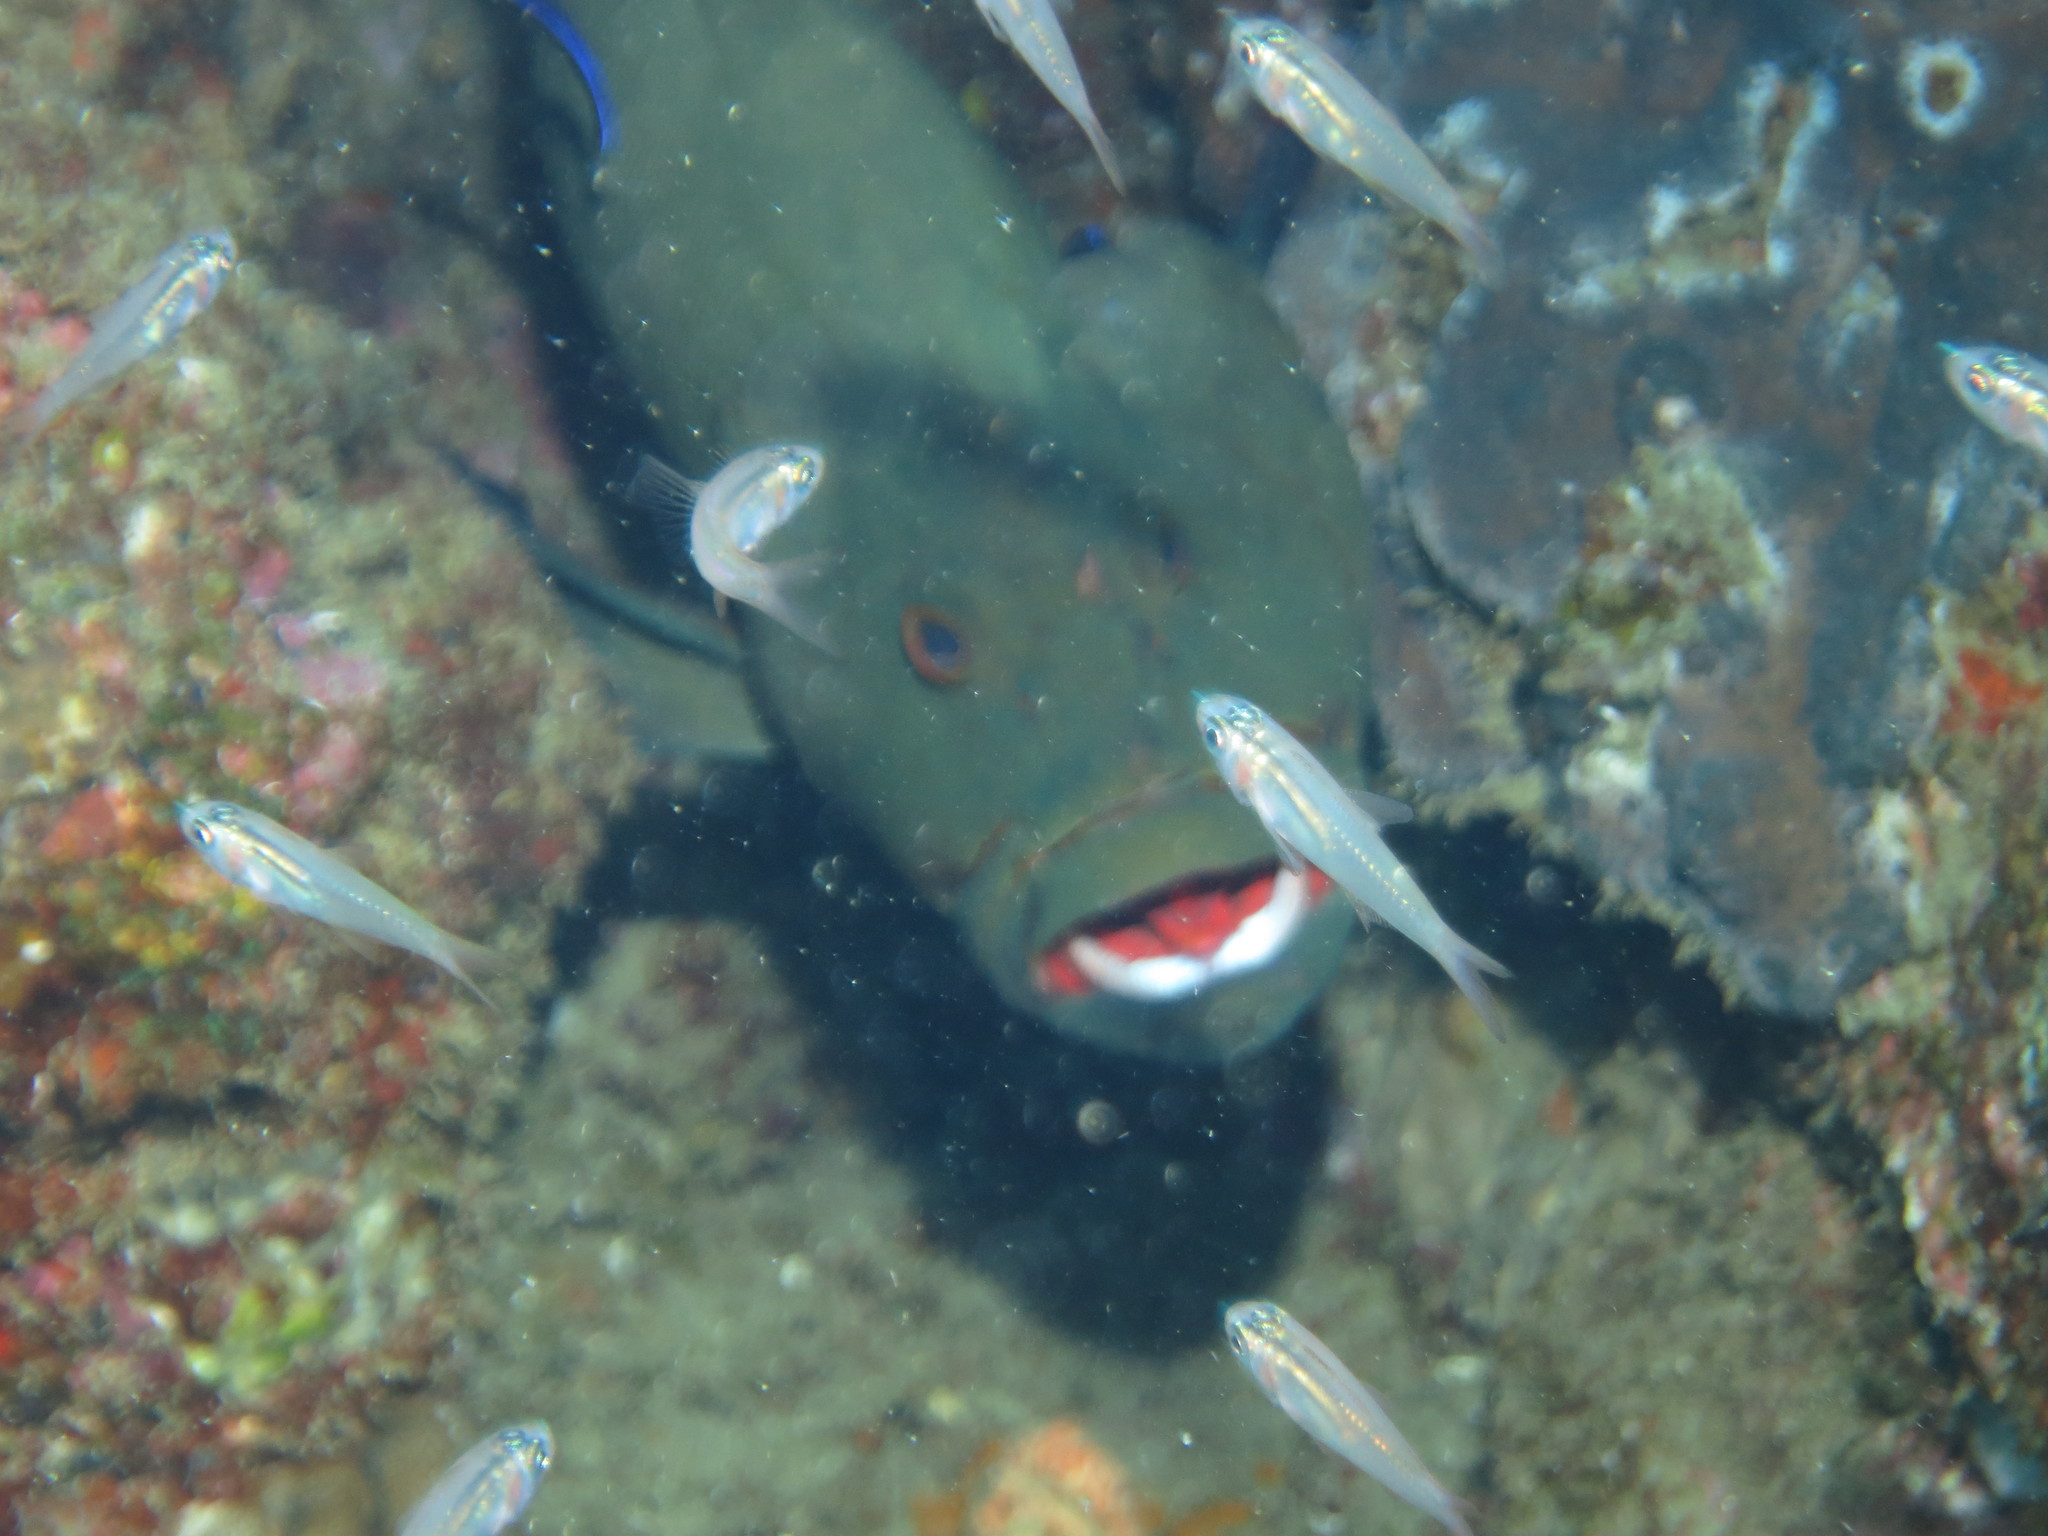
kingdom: Animalia
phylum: Chordata
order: Perciformes
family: Serranidae
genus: Aethaloperca
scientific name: Aethaloperca rogaa
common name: Redmouth grouper
